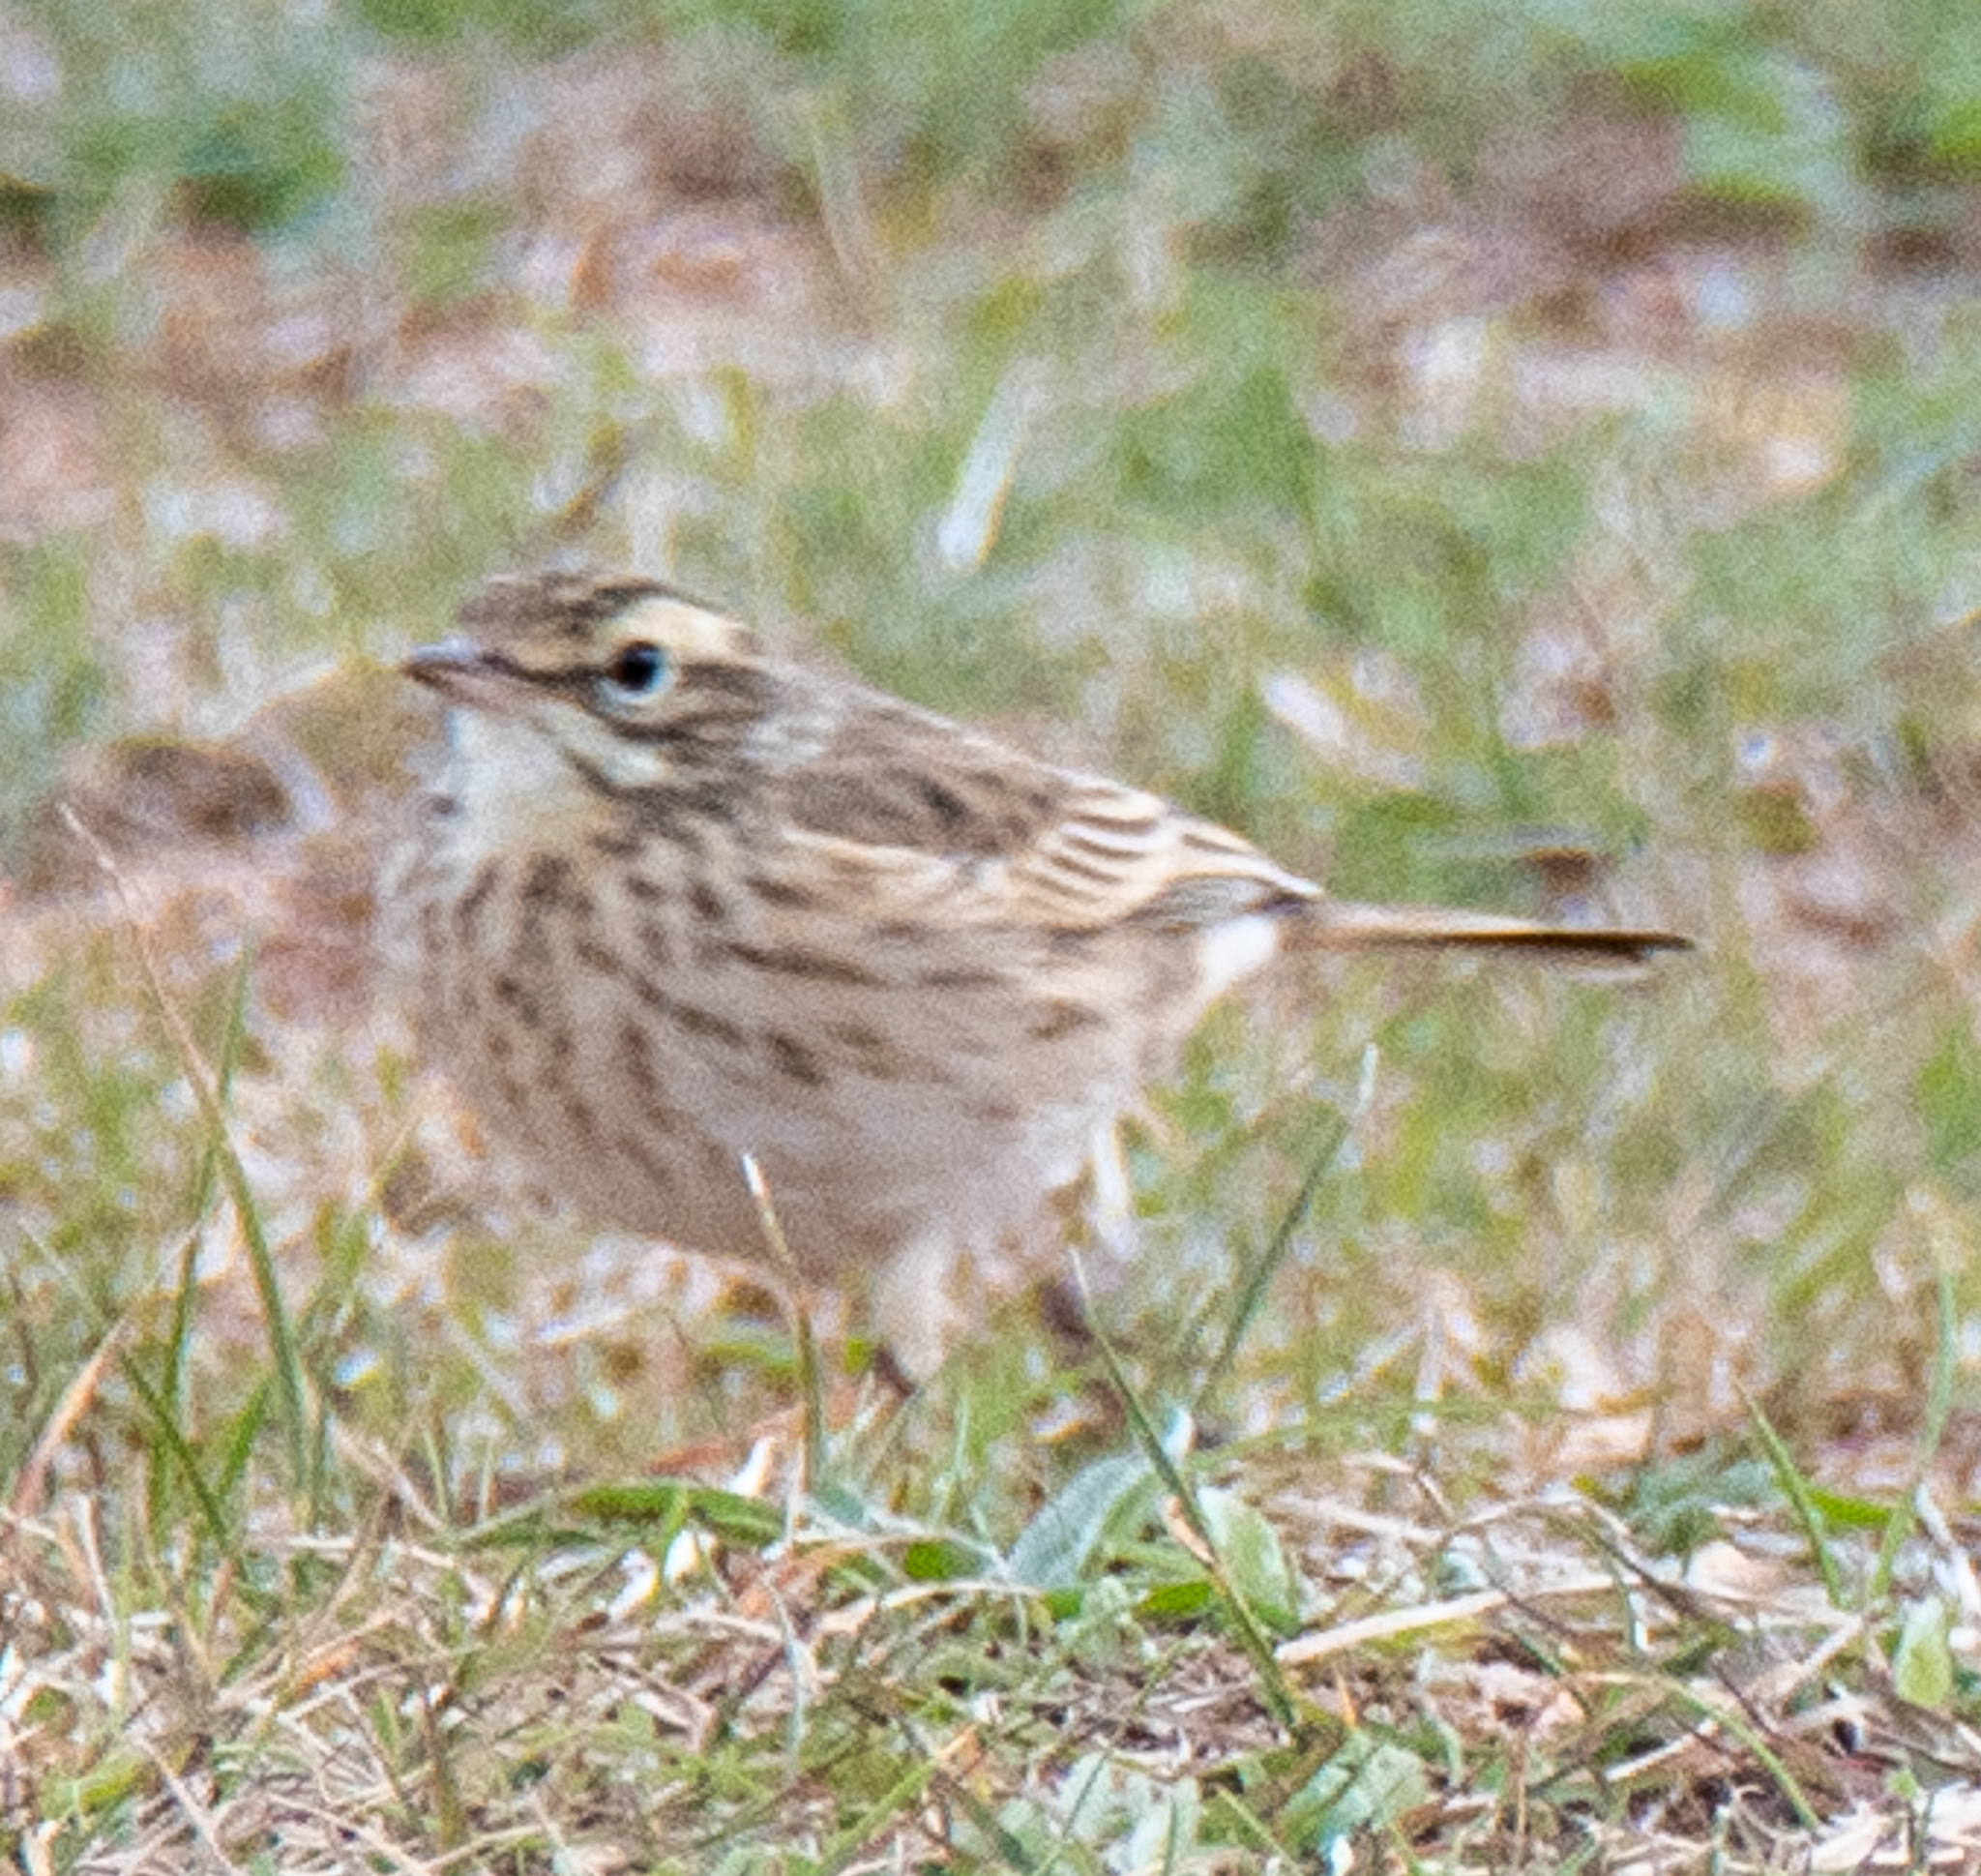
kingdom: Animalia
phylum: Chordata
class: Aves
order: Passeriformes
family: Motacillidae
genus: Anthus
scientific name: Anthus australis
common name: Australian pipit
